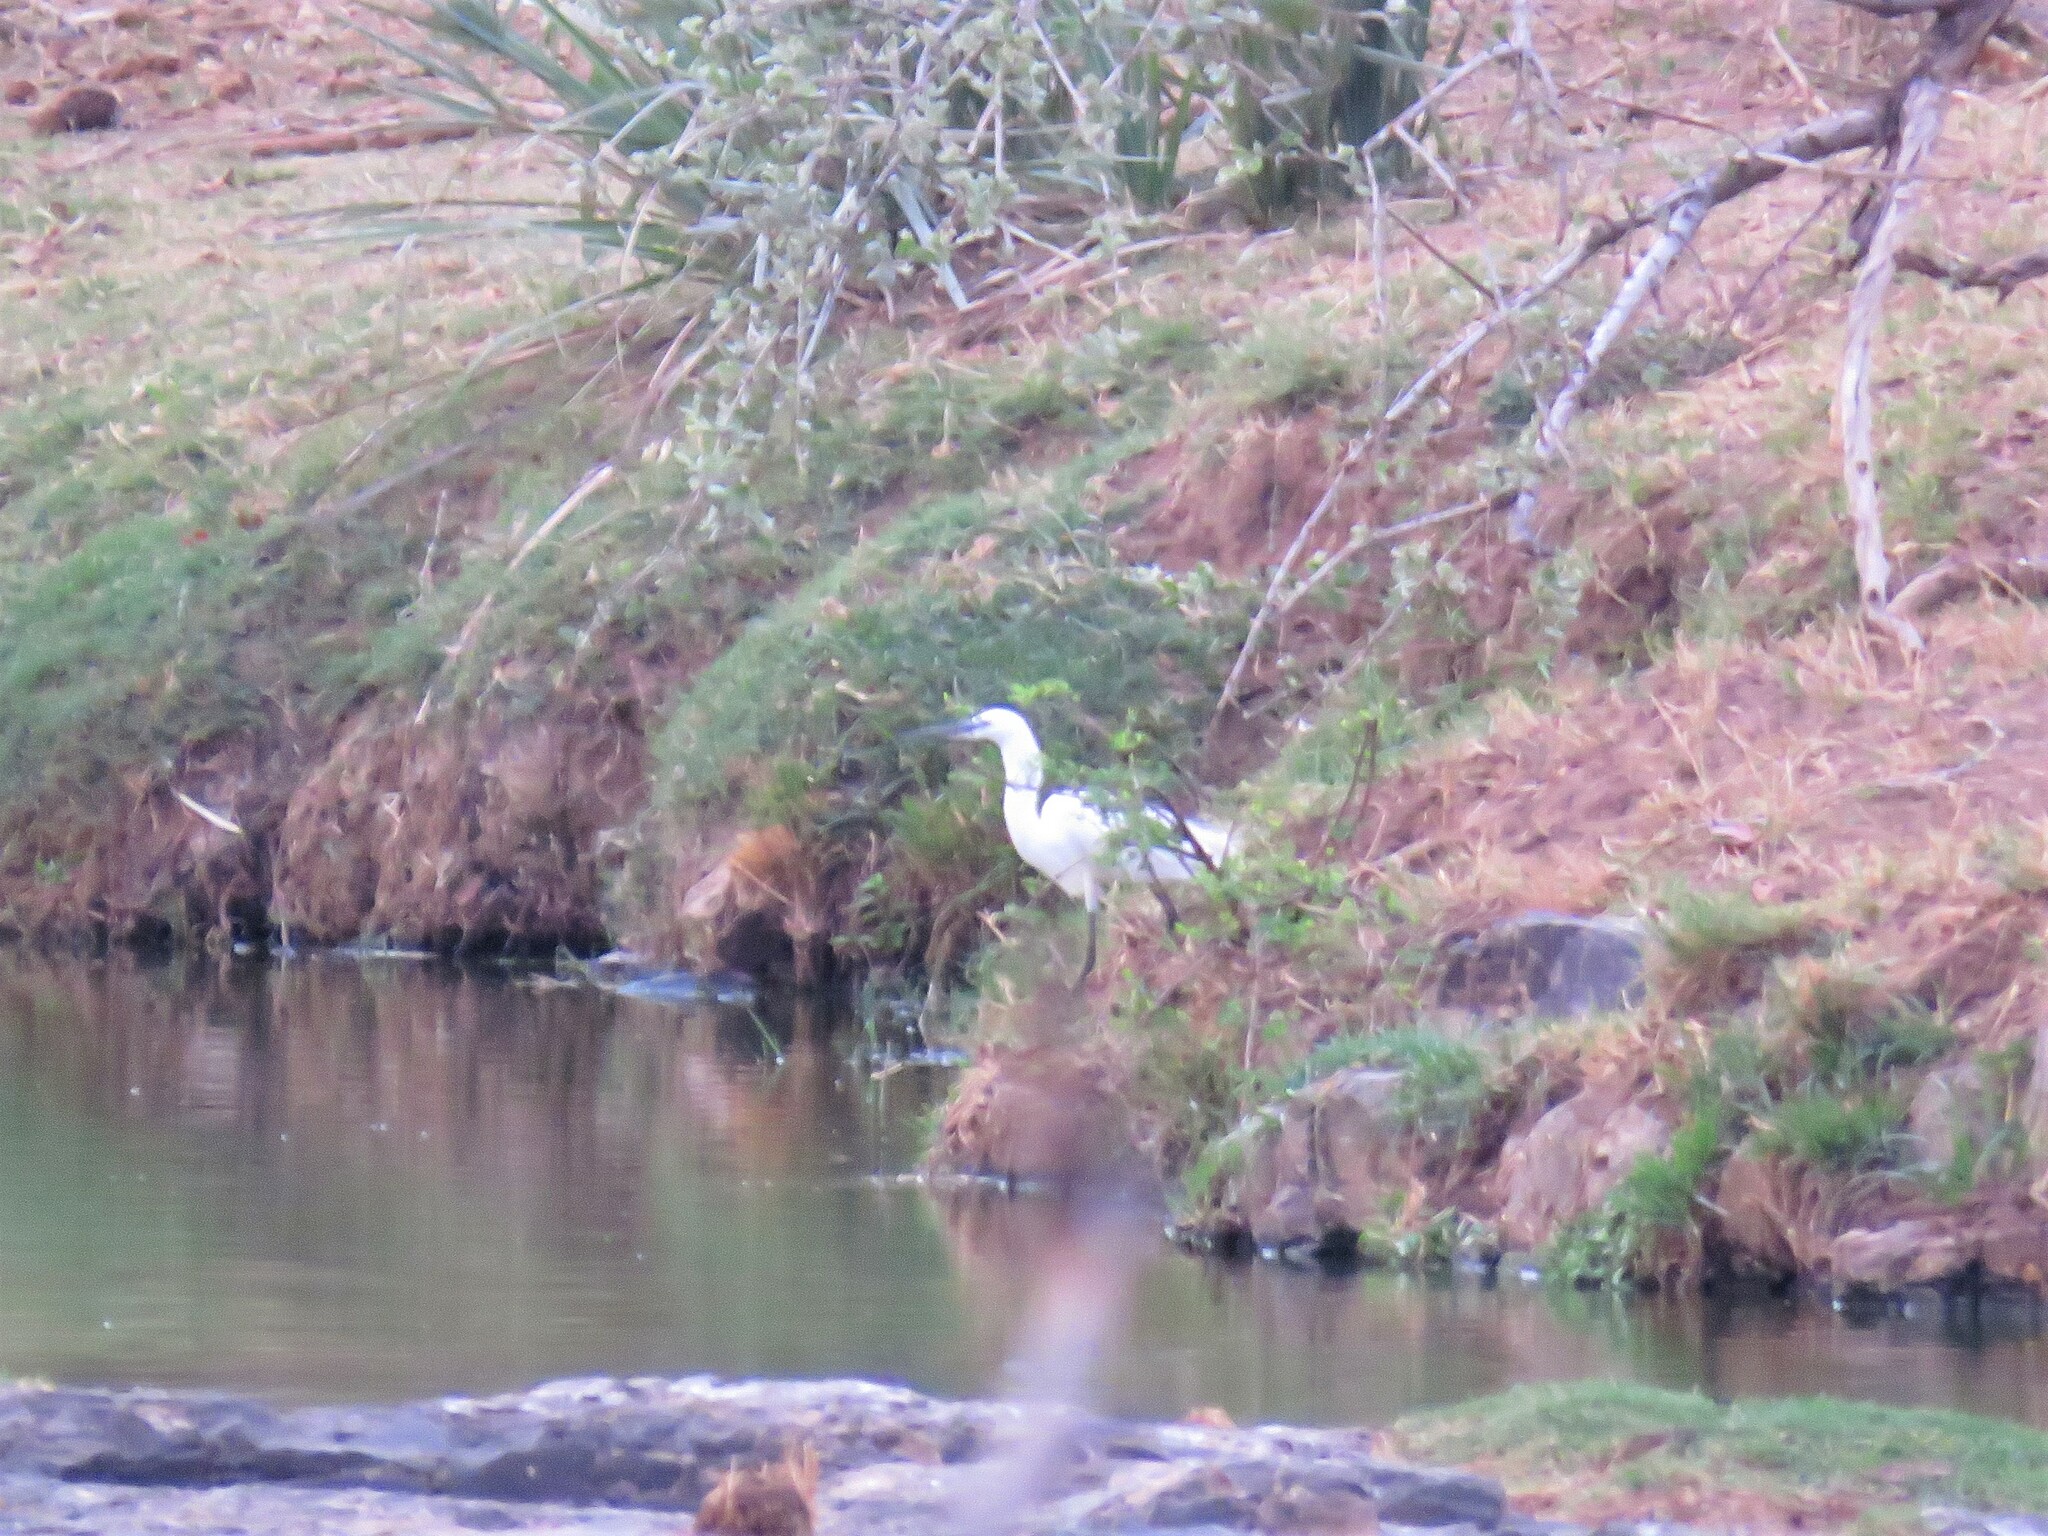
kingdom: Animalia
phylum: Chordata
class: Aves
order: Pelecaniformes
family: Ardeidae
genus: Egretta
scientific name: Egretta garzetta
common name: Little egret
